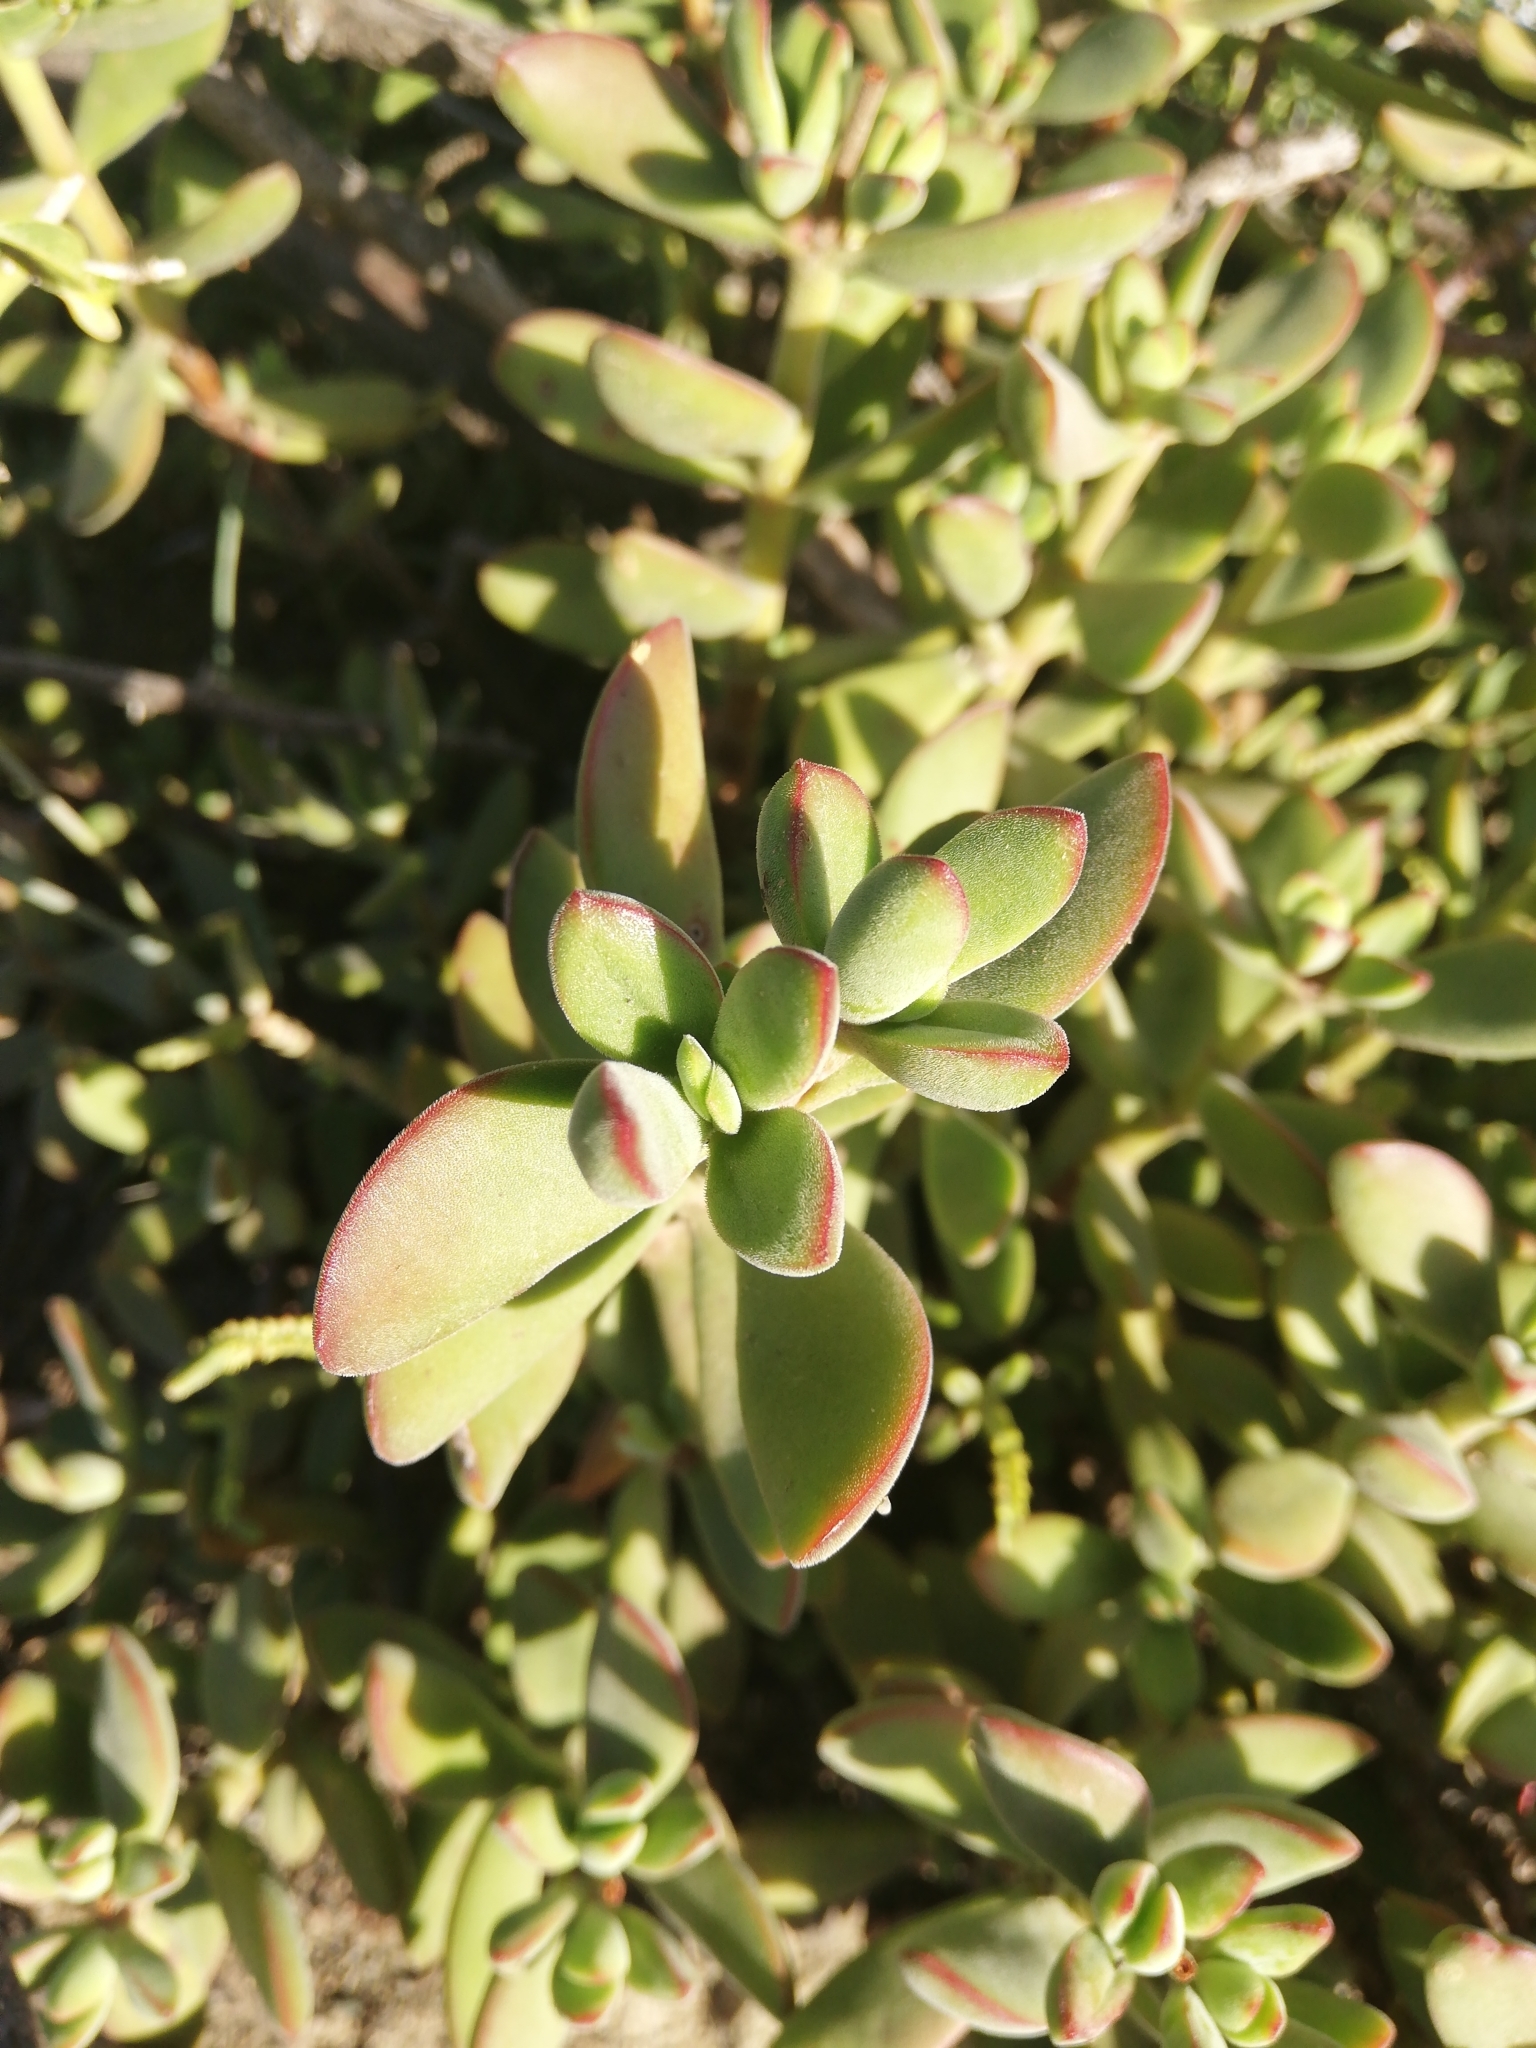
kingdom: Plantae
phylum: Tracheophyta
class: Magnoliopsida
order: Saxifragales
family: Crassulaceae
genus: Crassula
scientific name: Crassula rogersii
